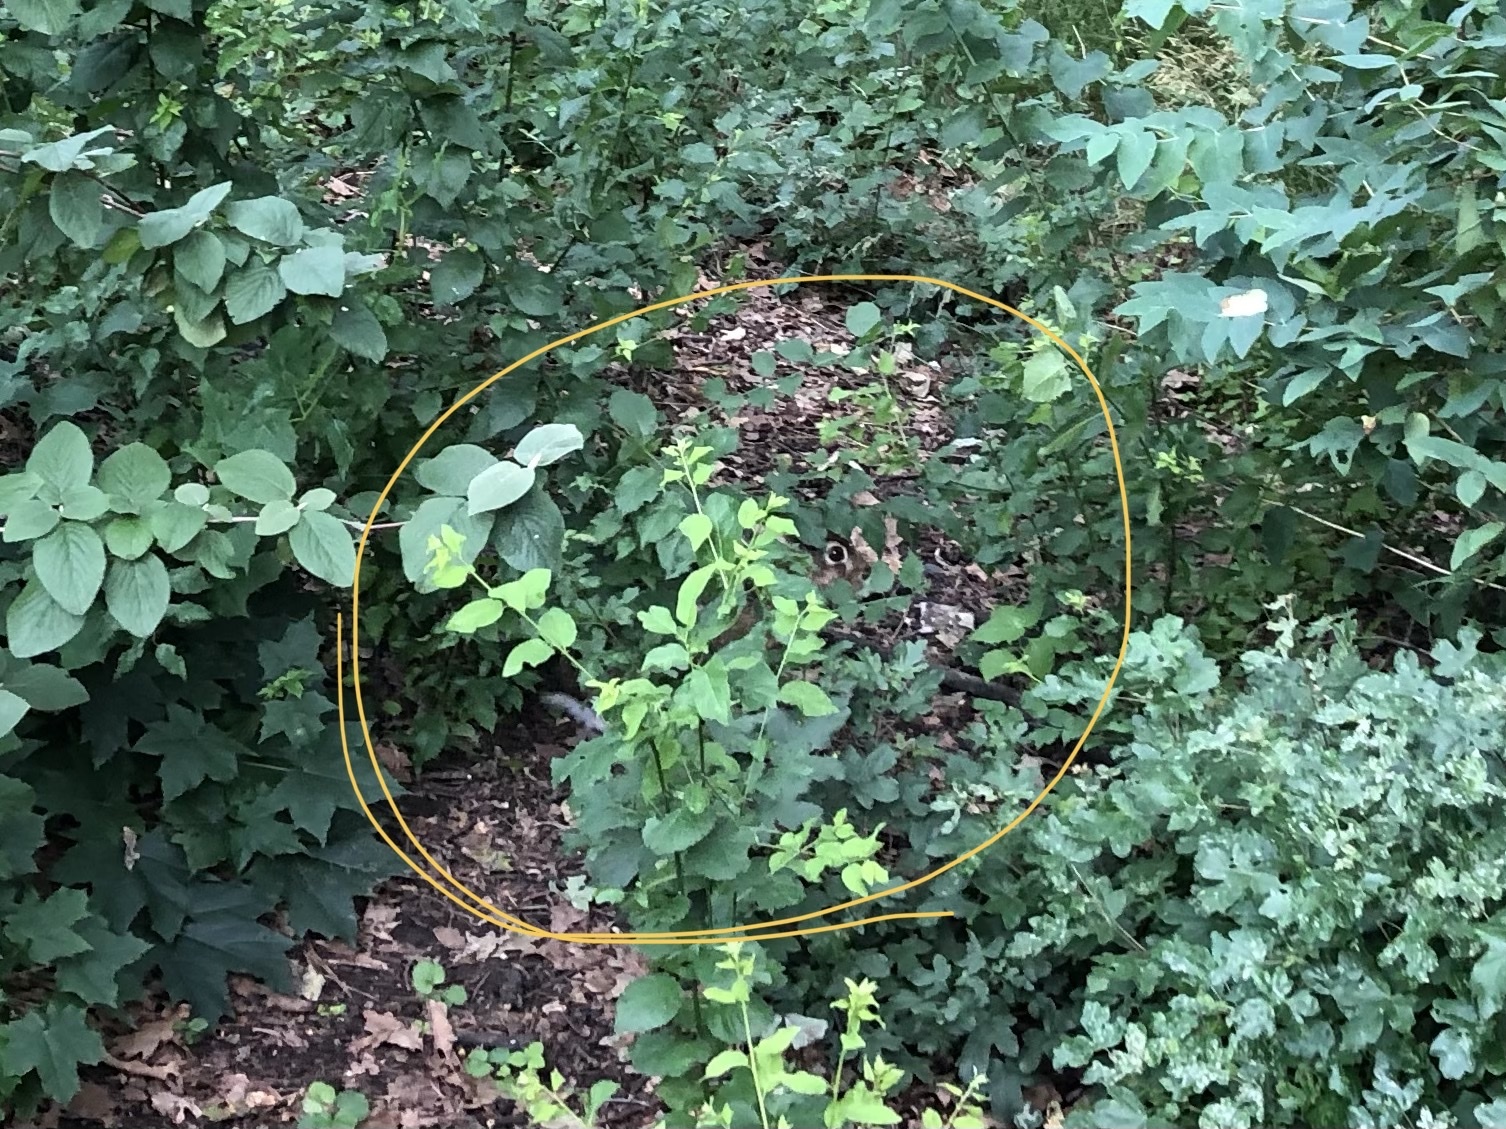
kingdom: Animalia
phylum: Chordata
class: Mammalia
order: Lagomorpha
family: Leporidae
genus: Lepus
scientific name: Lepus europaeus
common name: European hare
